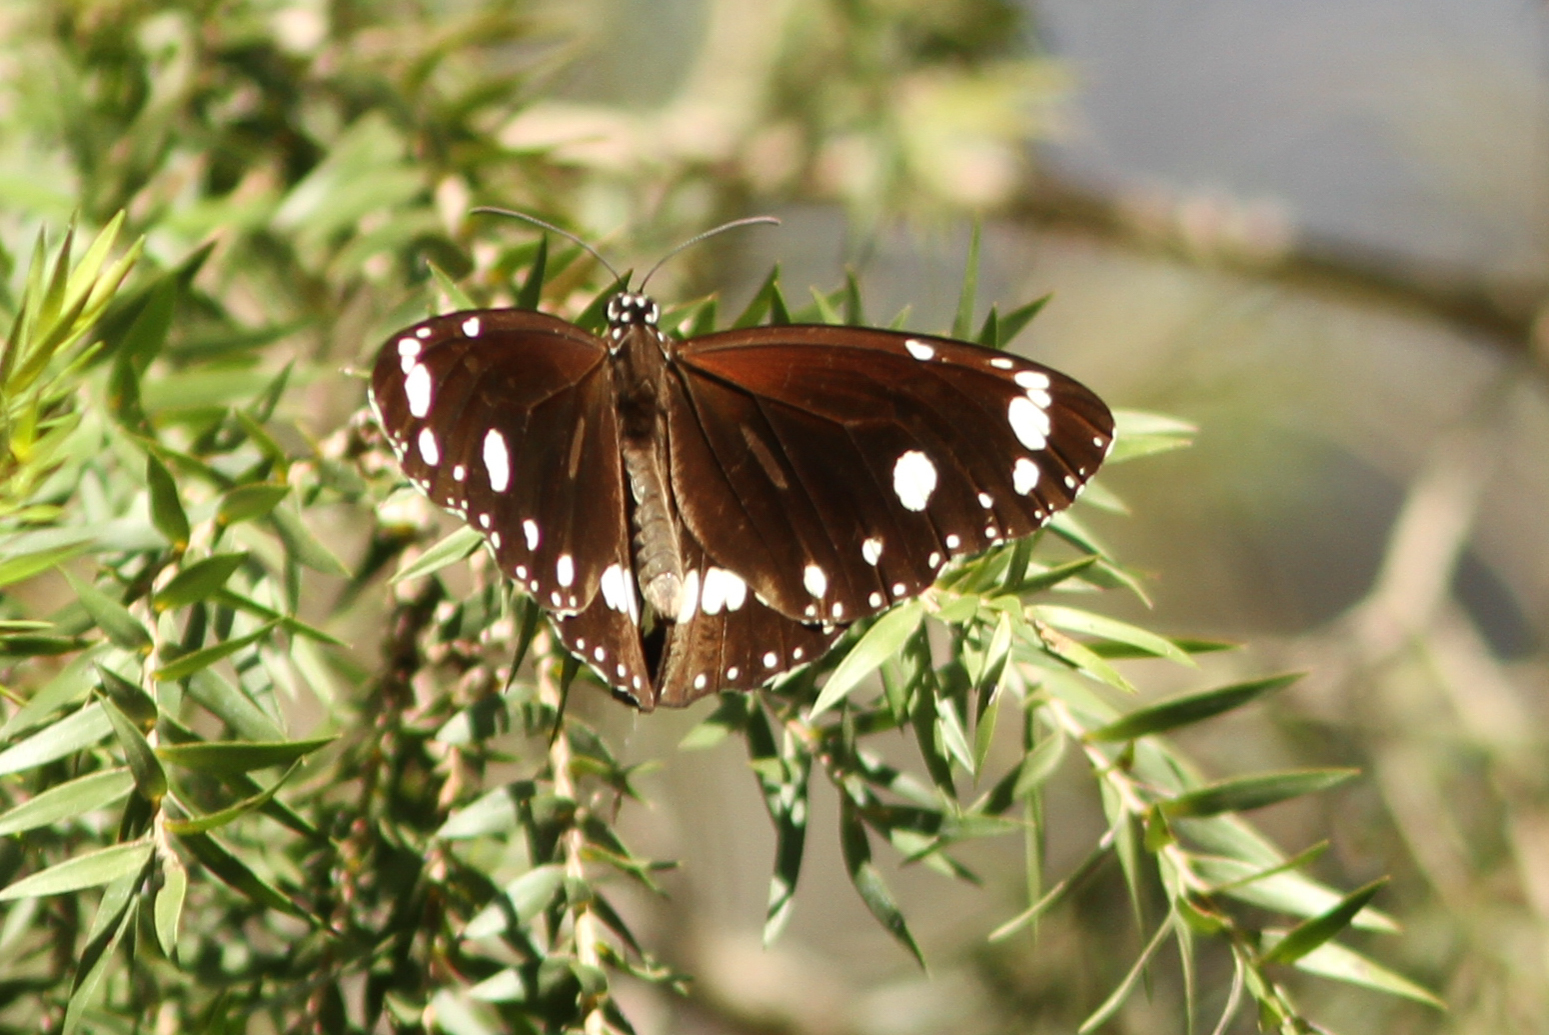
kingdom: Animalia
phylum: Arthropoda
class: Insecta
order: Lepidoptera
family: Nymphalidae
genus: Euploea
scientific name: Euploea core
